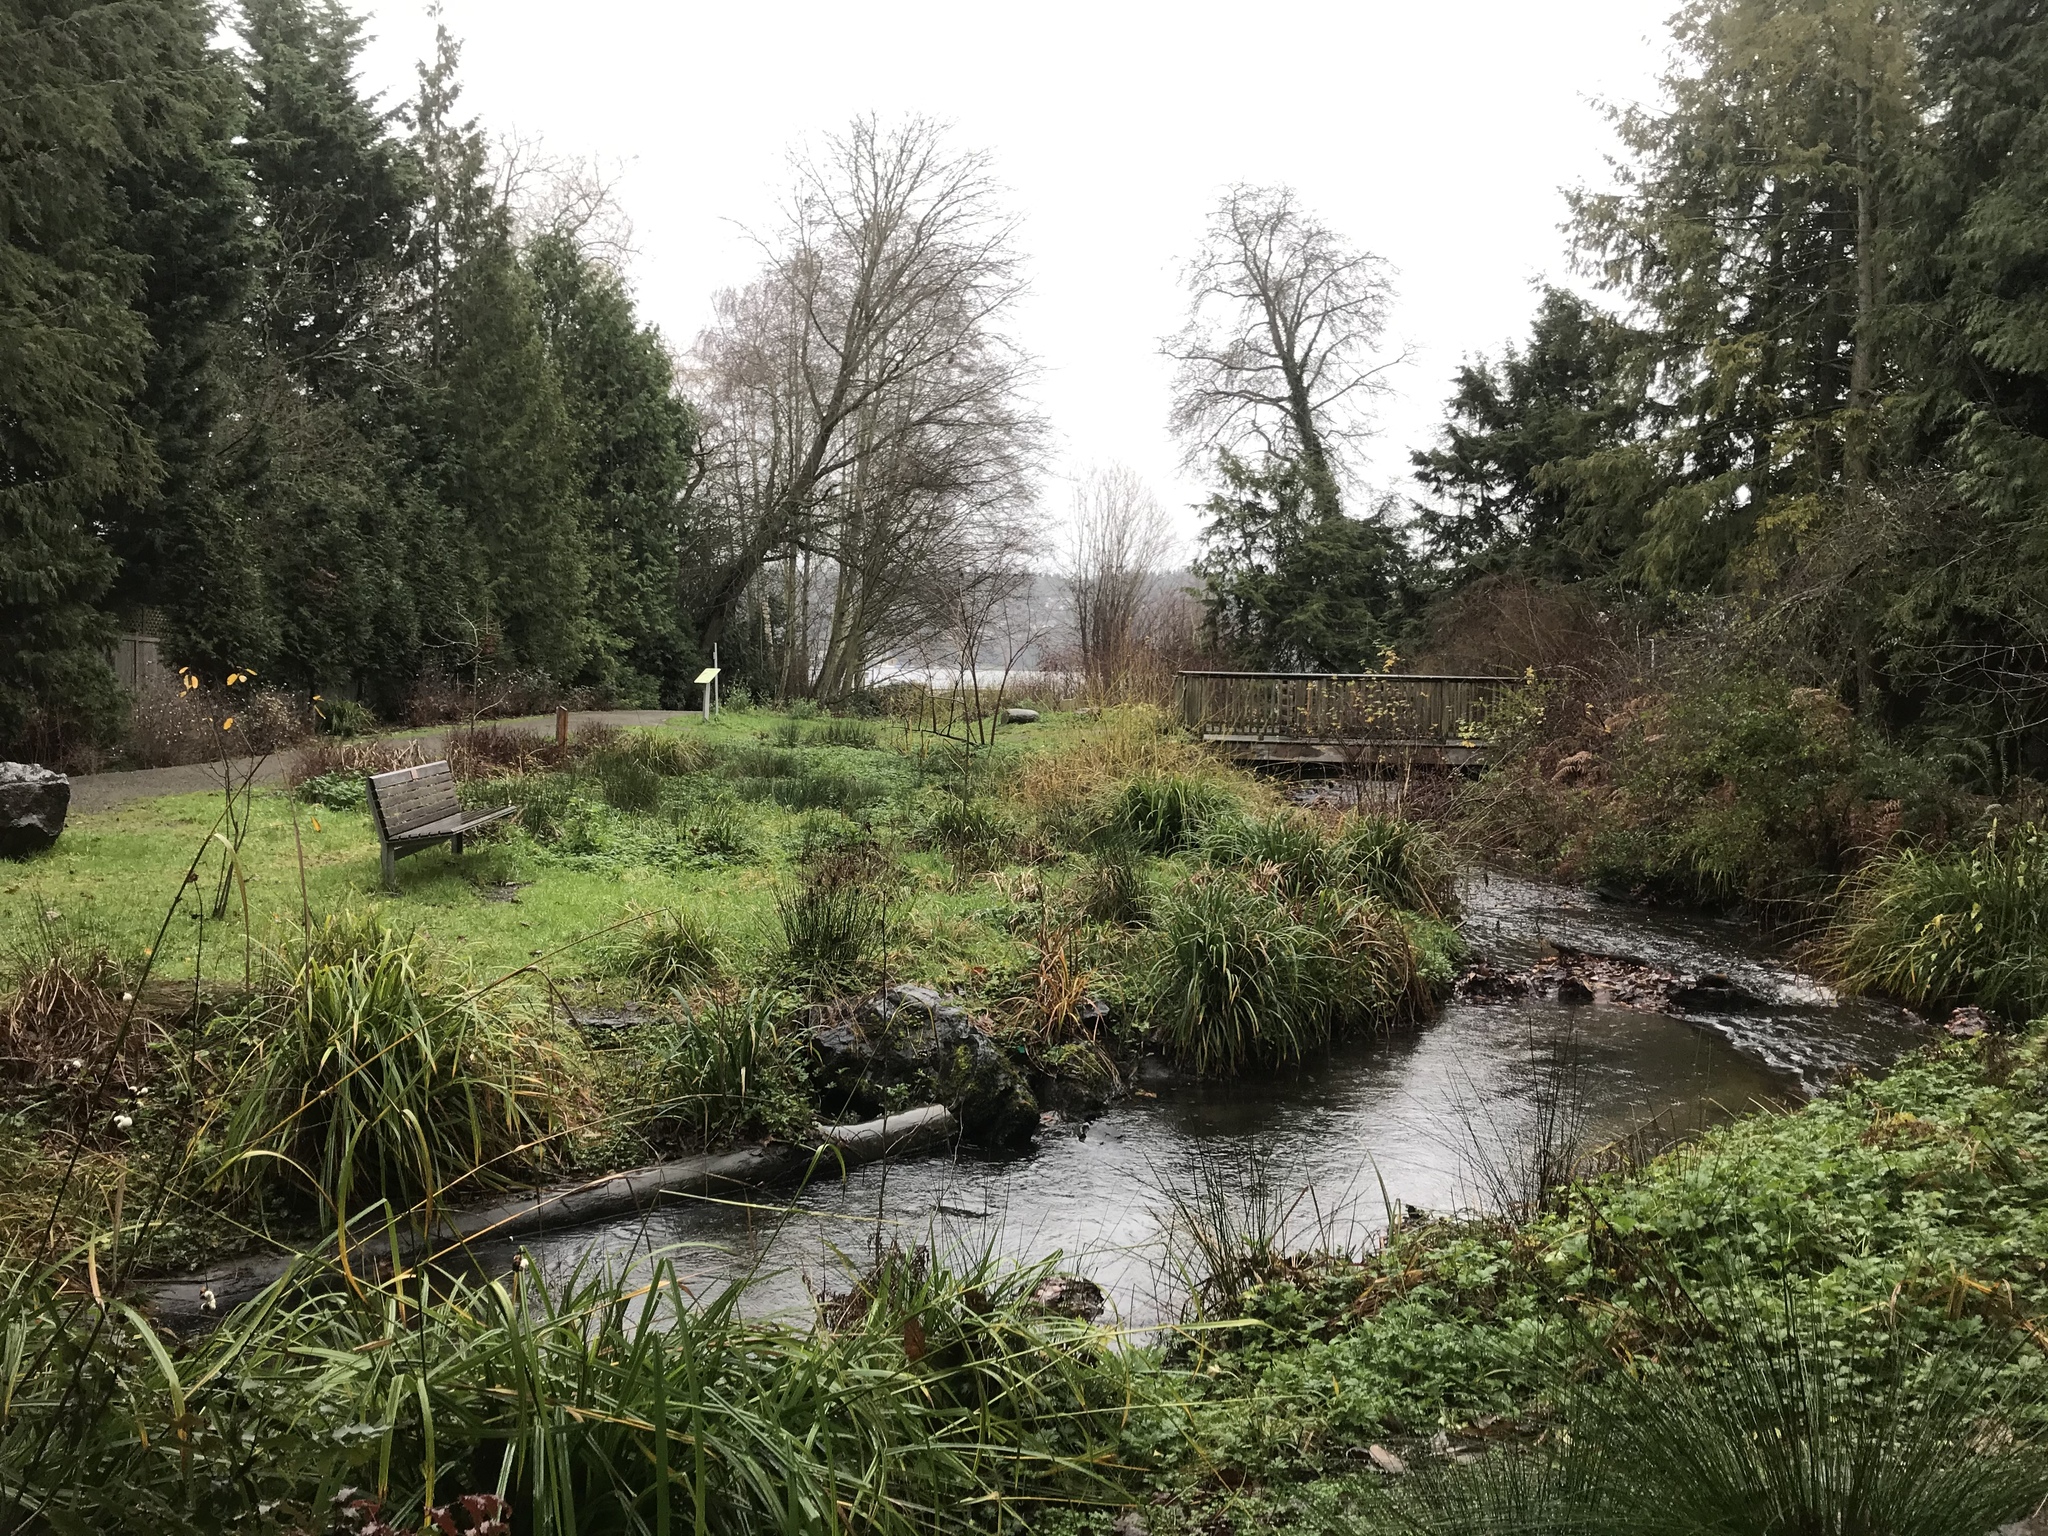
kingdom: Plantae
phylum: Tracheophyta
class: Liliopsida
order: Poales
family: Cyperaceae
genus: Carex
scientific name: Carex pendula
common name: Pendulous sedge
